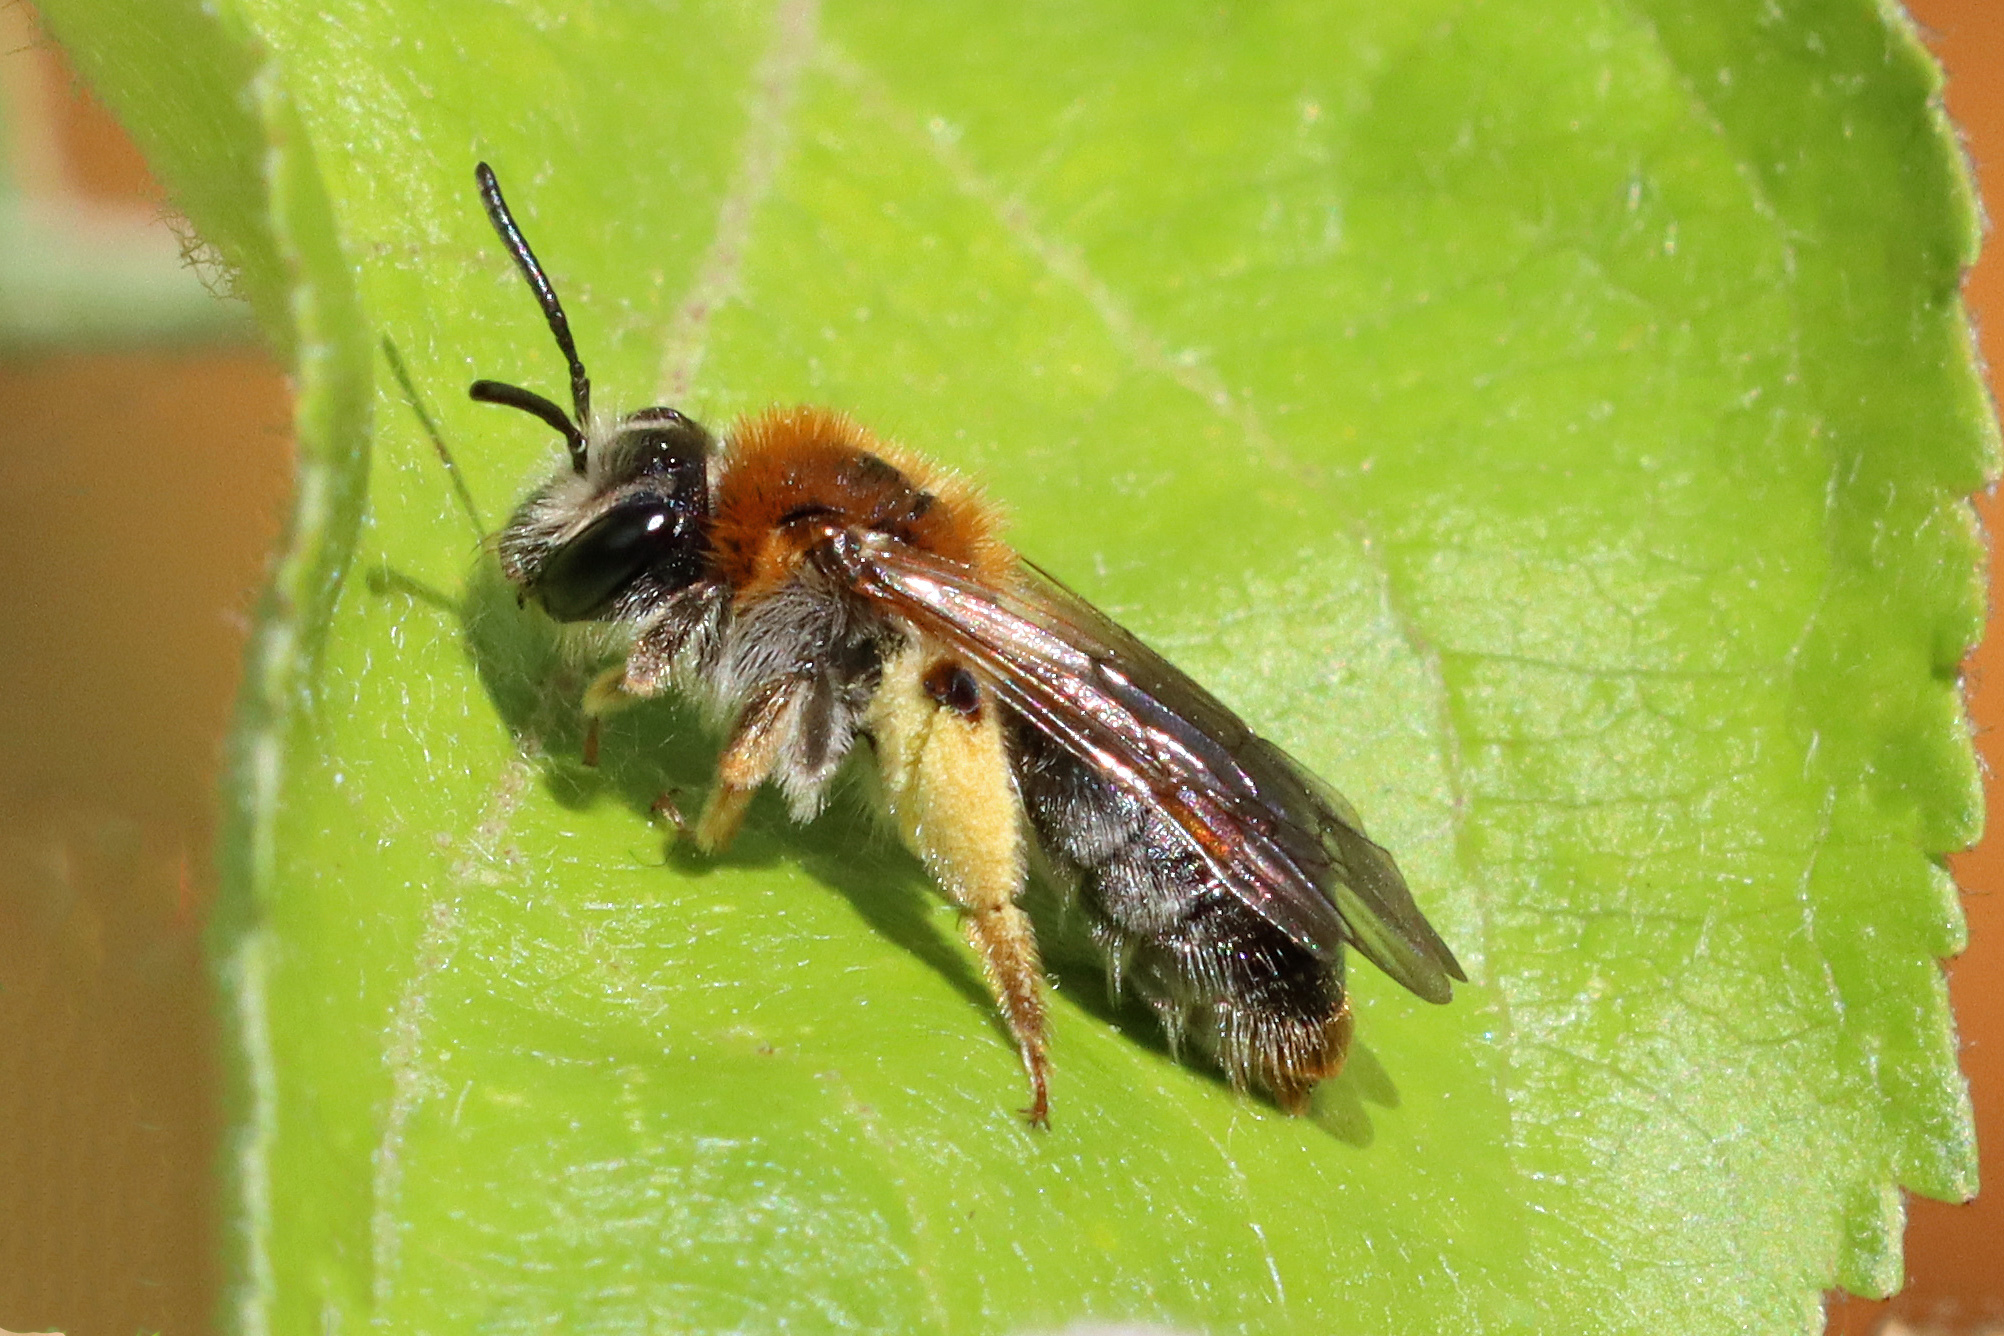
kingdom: Animalia
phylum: Arthropoda
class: Insecta
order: Hymenoptera
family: Andrenidae
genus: Andrena
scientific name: Andrena haemorrhoa
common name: Early mining bee
